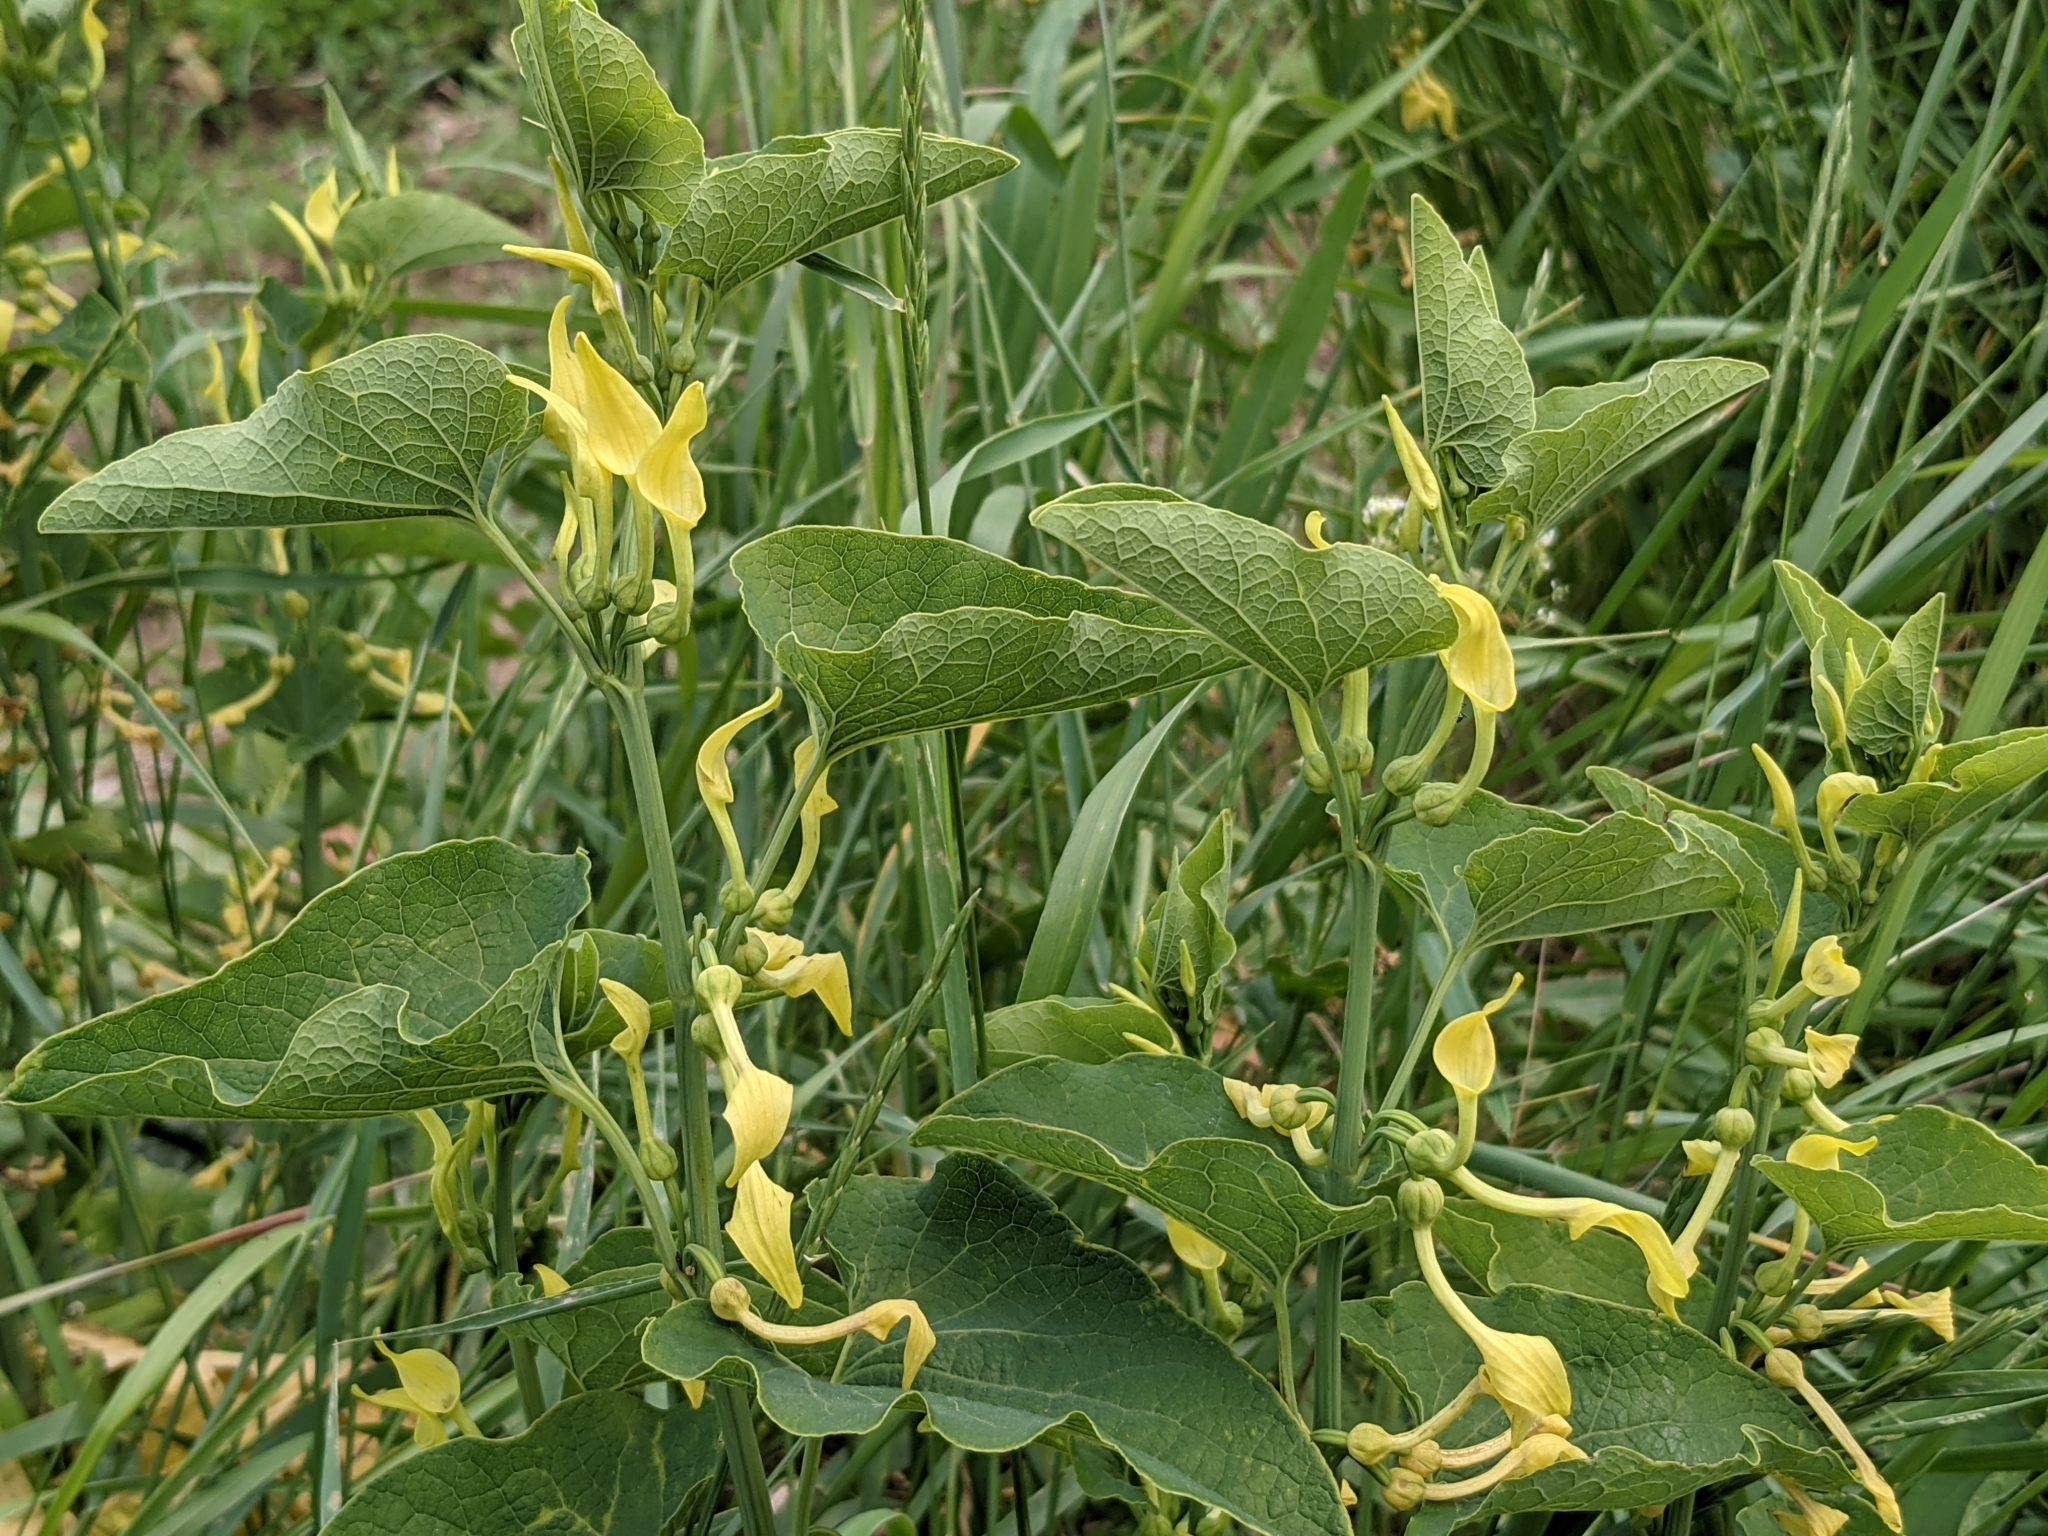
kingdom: Plantae
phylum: Tracheophyta
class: Magnoliopsida
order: Piperales
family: Aristolochiaceae
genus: Aristolochia
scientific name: Aristolochia clematitis
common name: Birthwort
